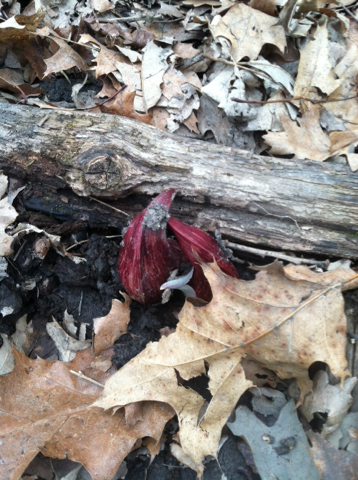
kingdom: Plantae
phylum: Tracheophyta
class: Liliopsida
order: Alismatales
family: Araceae
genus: Symplocarpus
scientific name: Symplocarpus foetidus
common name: Eastern skunk cabbage
